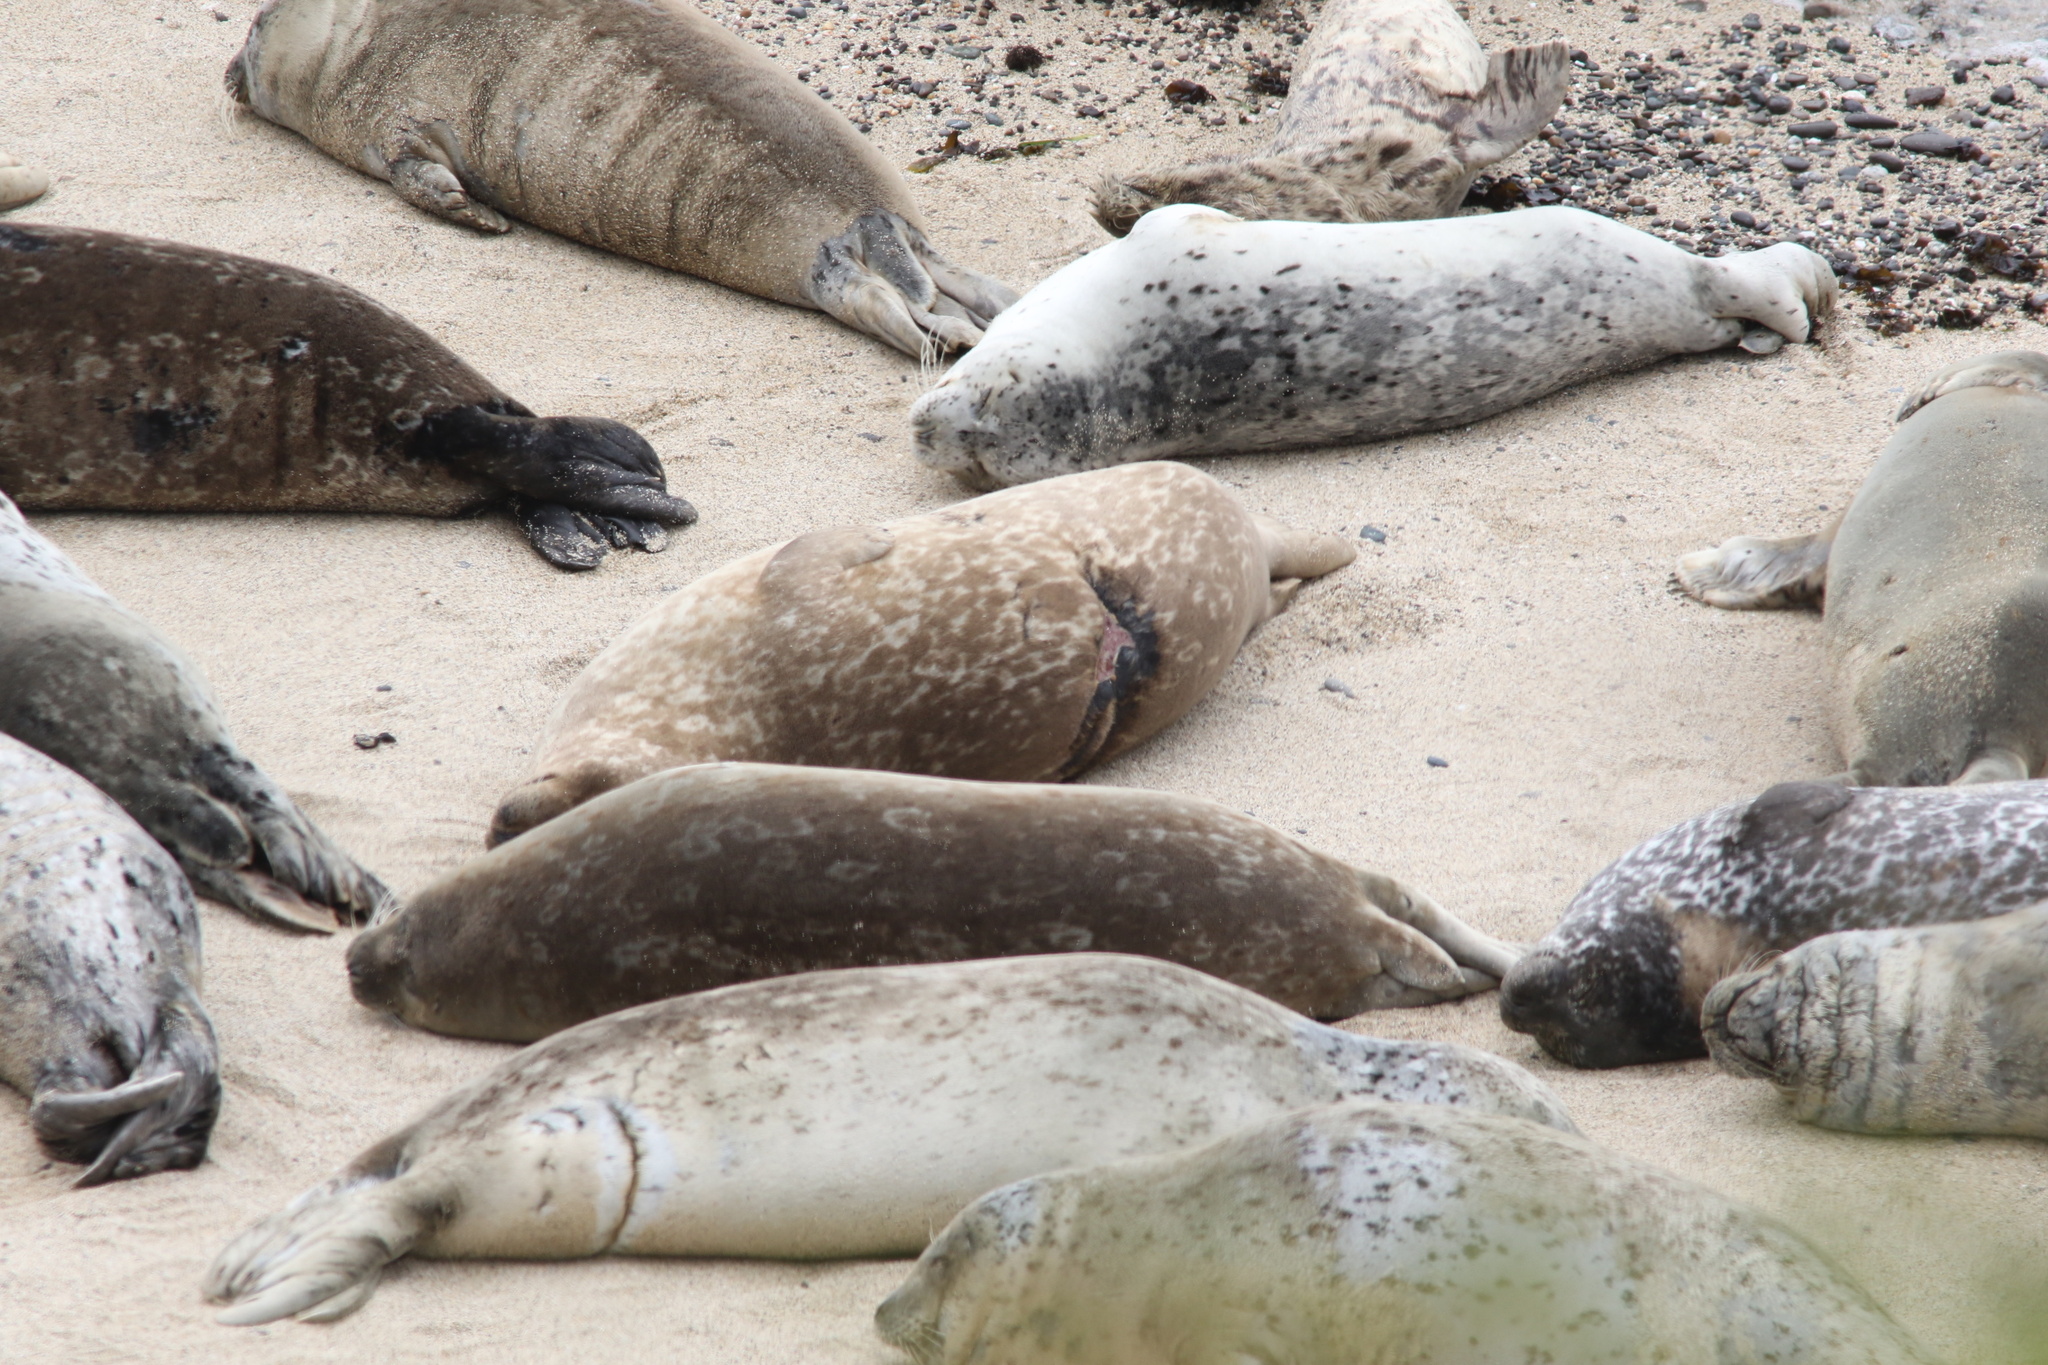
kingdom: Animalia
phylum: Chordata
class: Mammalia
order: Carnivora
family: Phocidae
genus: Phoca
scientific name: Phoca vitulina
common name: Harbor seal
